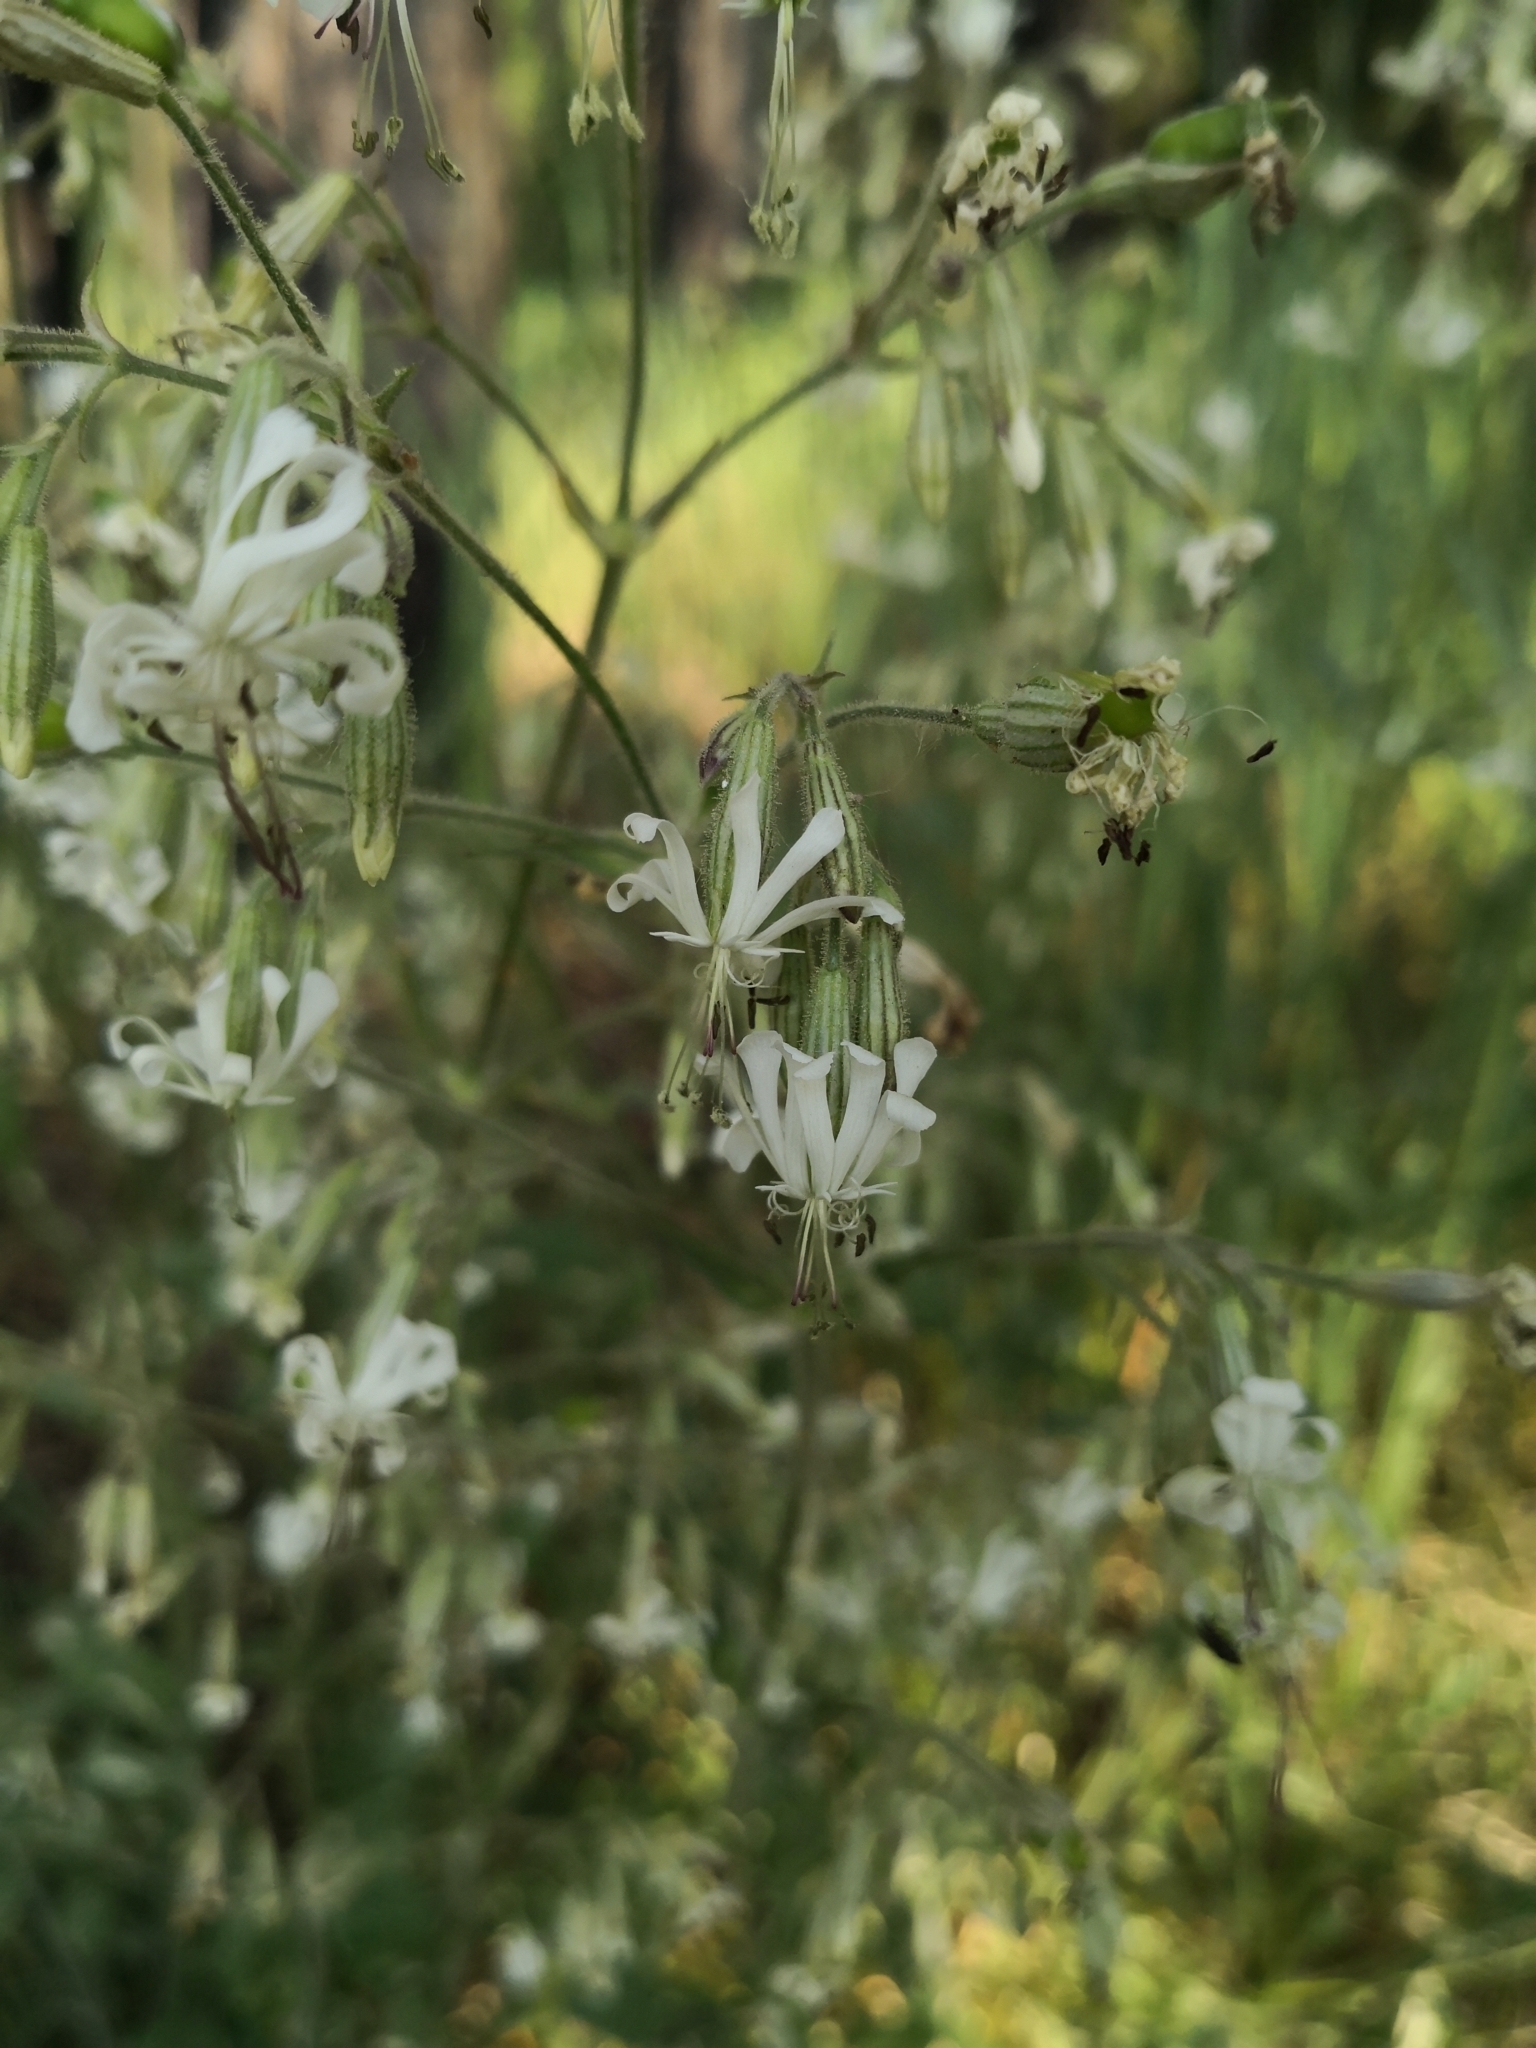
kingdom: Plantae
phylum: Tracheophyta
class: Magnoliopsida
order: Caryophyllales
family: Caryophyllaceae
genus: Silene
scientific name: Silene nutans
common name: Nottingham catchfly
